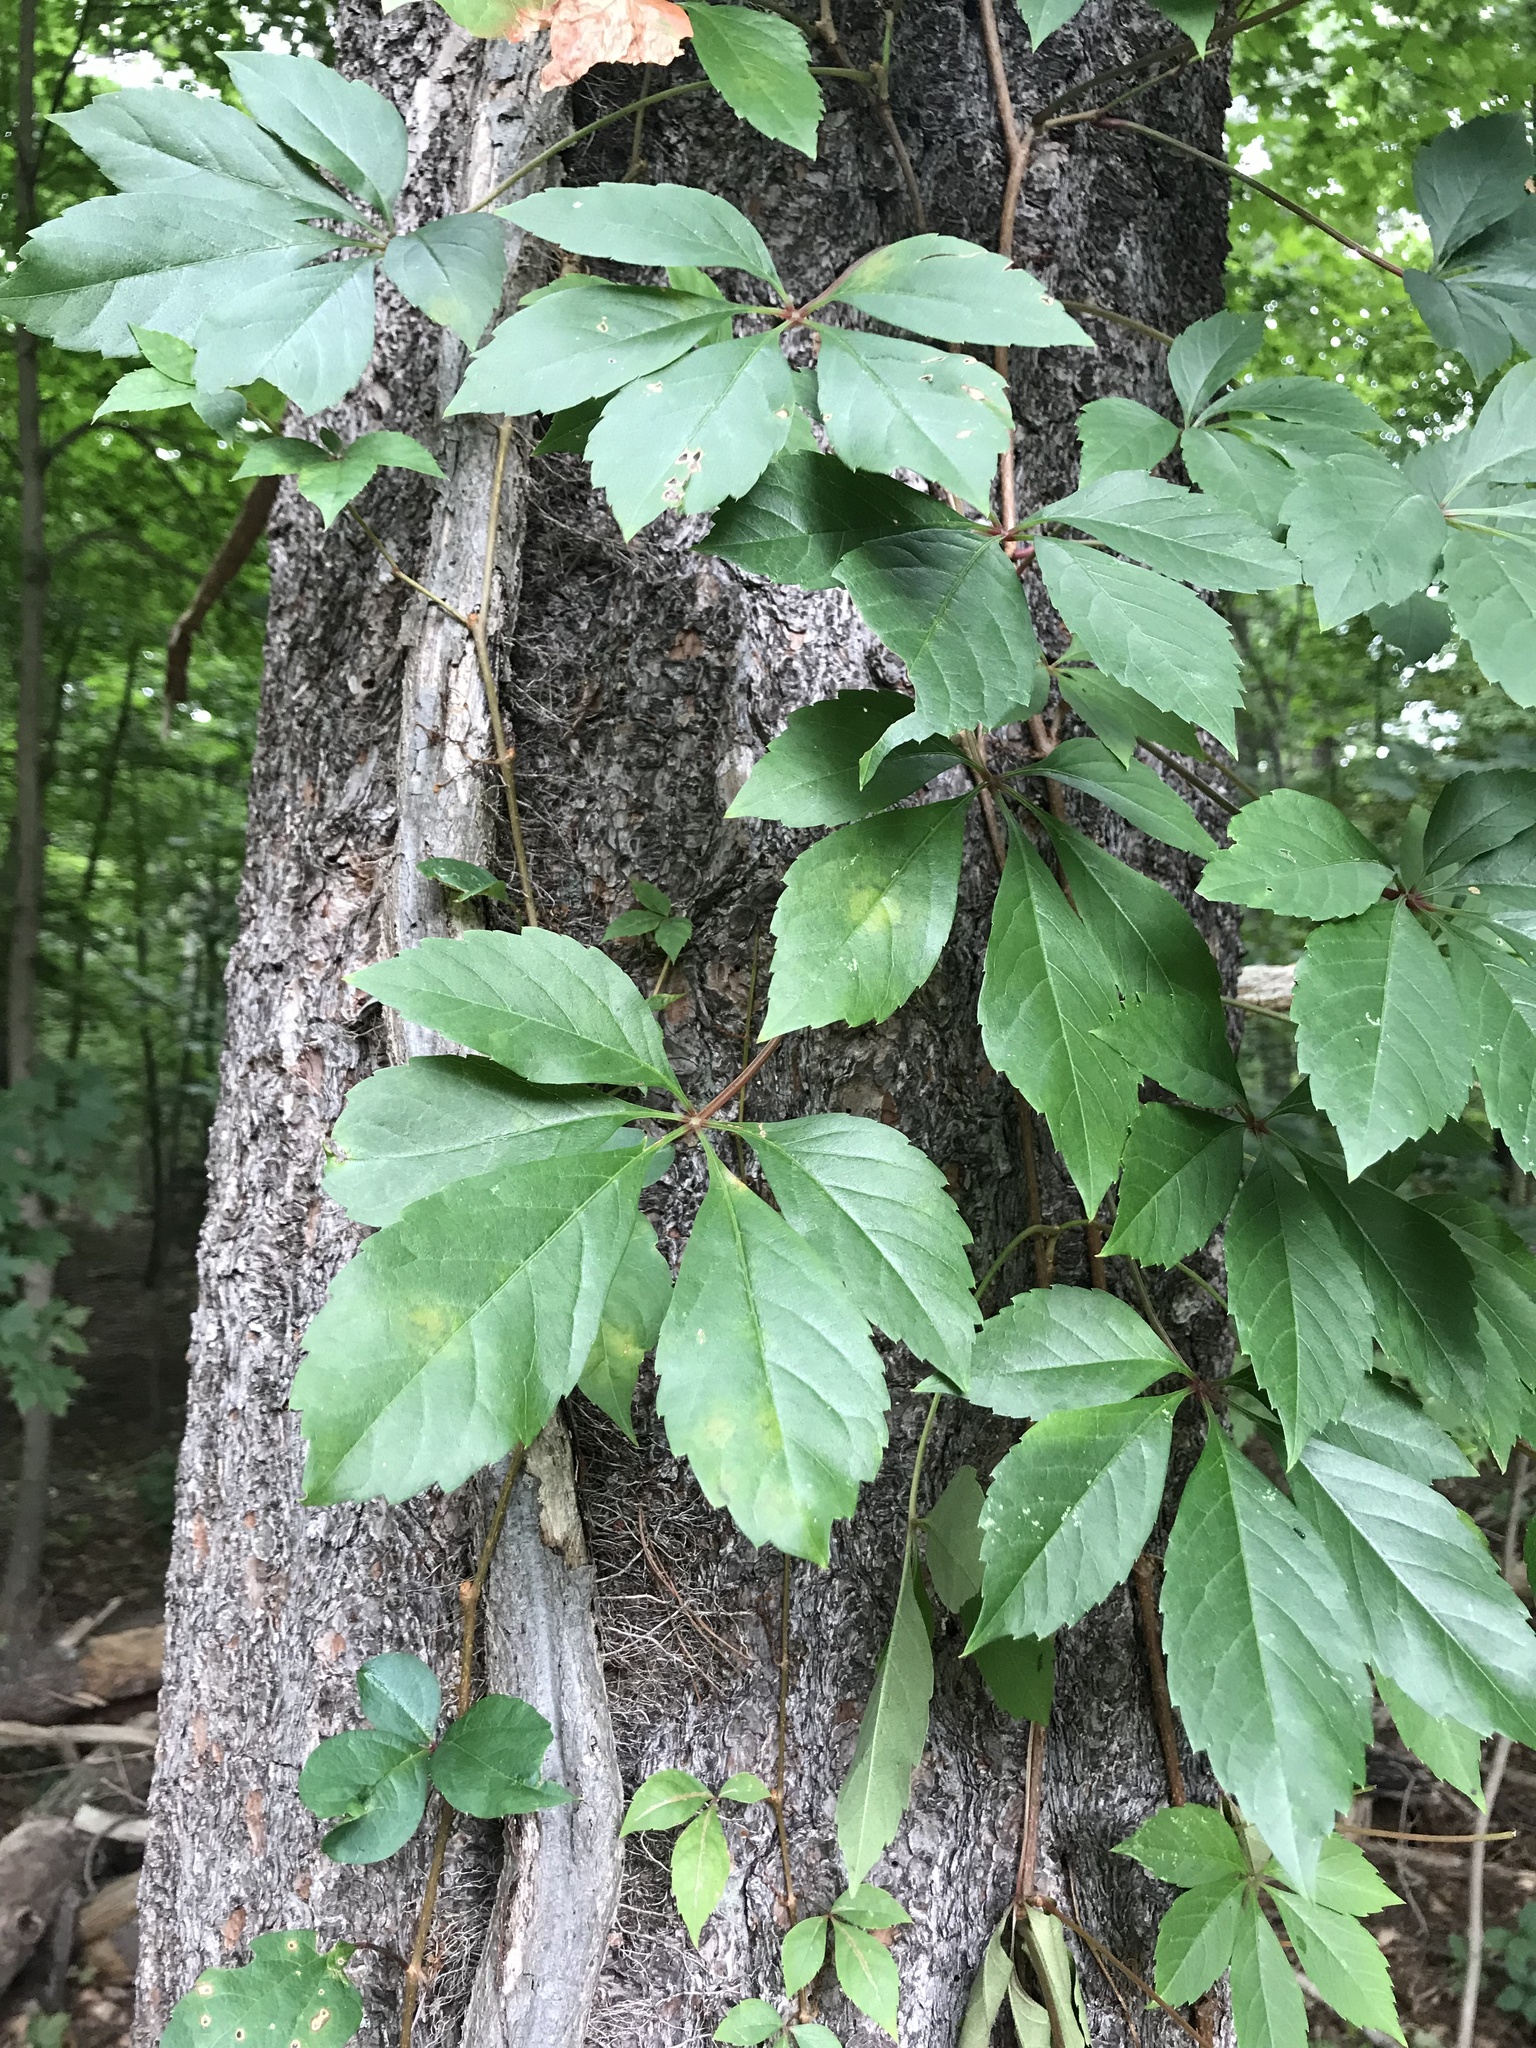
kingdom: Plantae
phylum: Tracheophyta
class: Magnoliopsida
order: Vitales
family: Vitaceae
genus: Parthenocissus
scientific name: Parthenocissus quinquefolia
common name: Virginia-creeper
